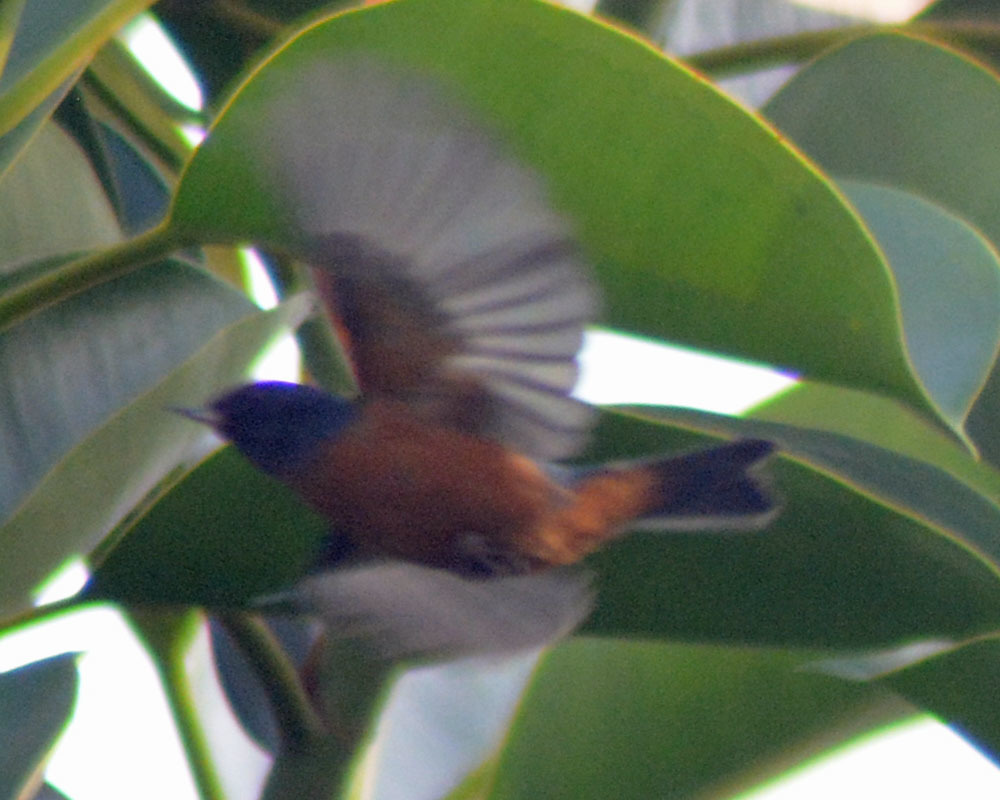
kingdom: Animalia
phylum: Chordata
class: Aves
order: Passeriformes
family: Thraupidae
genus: Diglossa
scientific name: Diglossa baritula
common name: Cinnamon-bellied flowerpiercer
